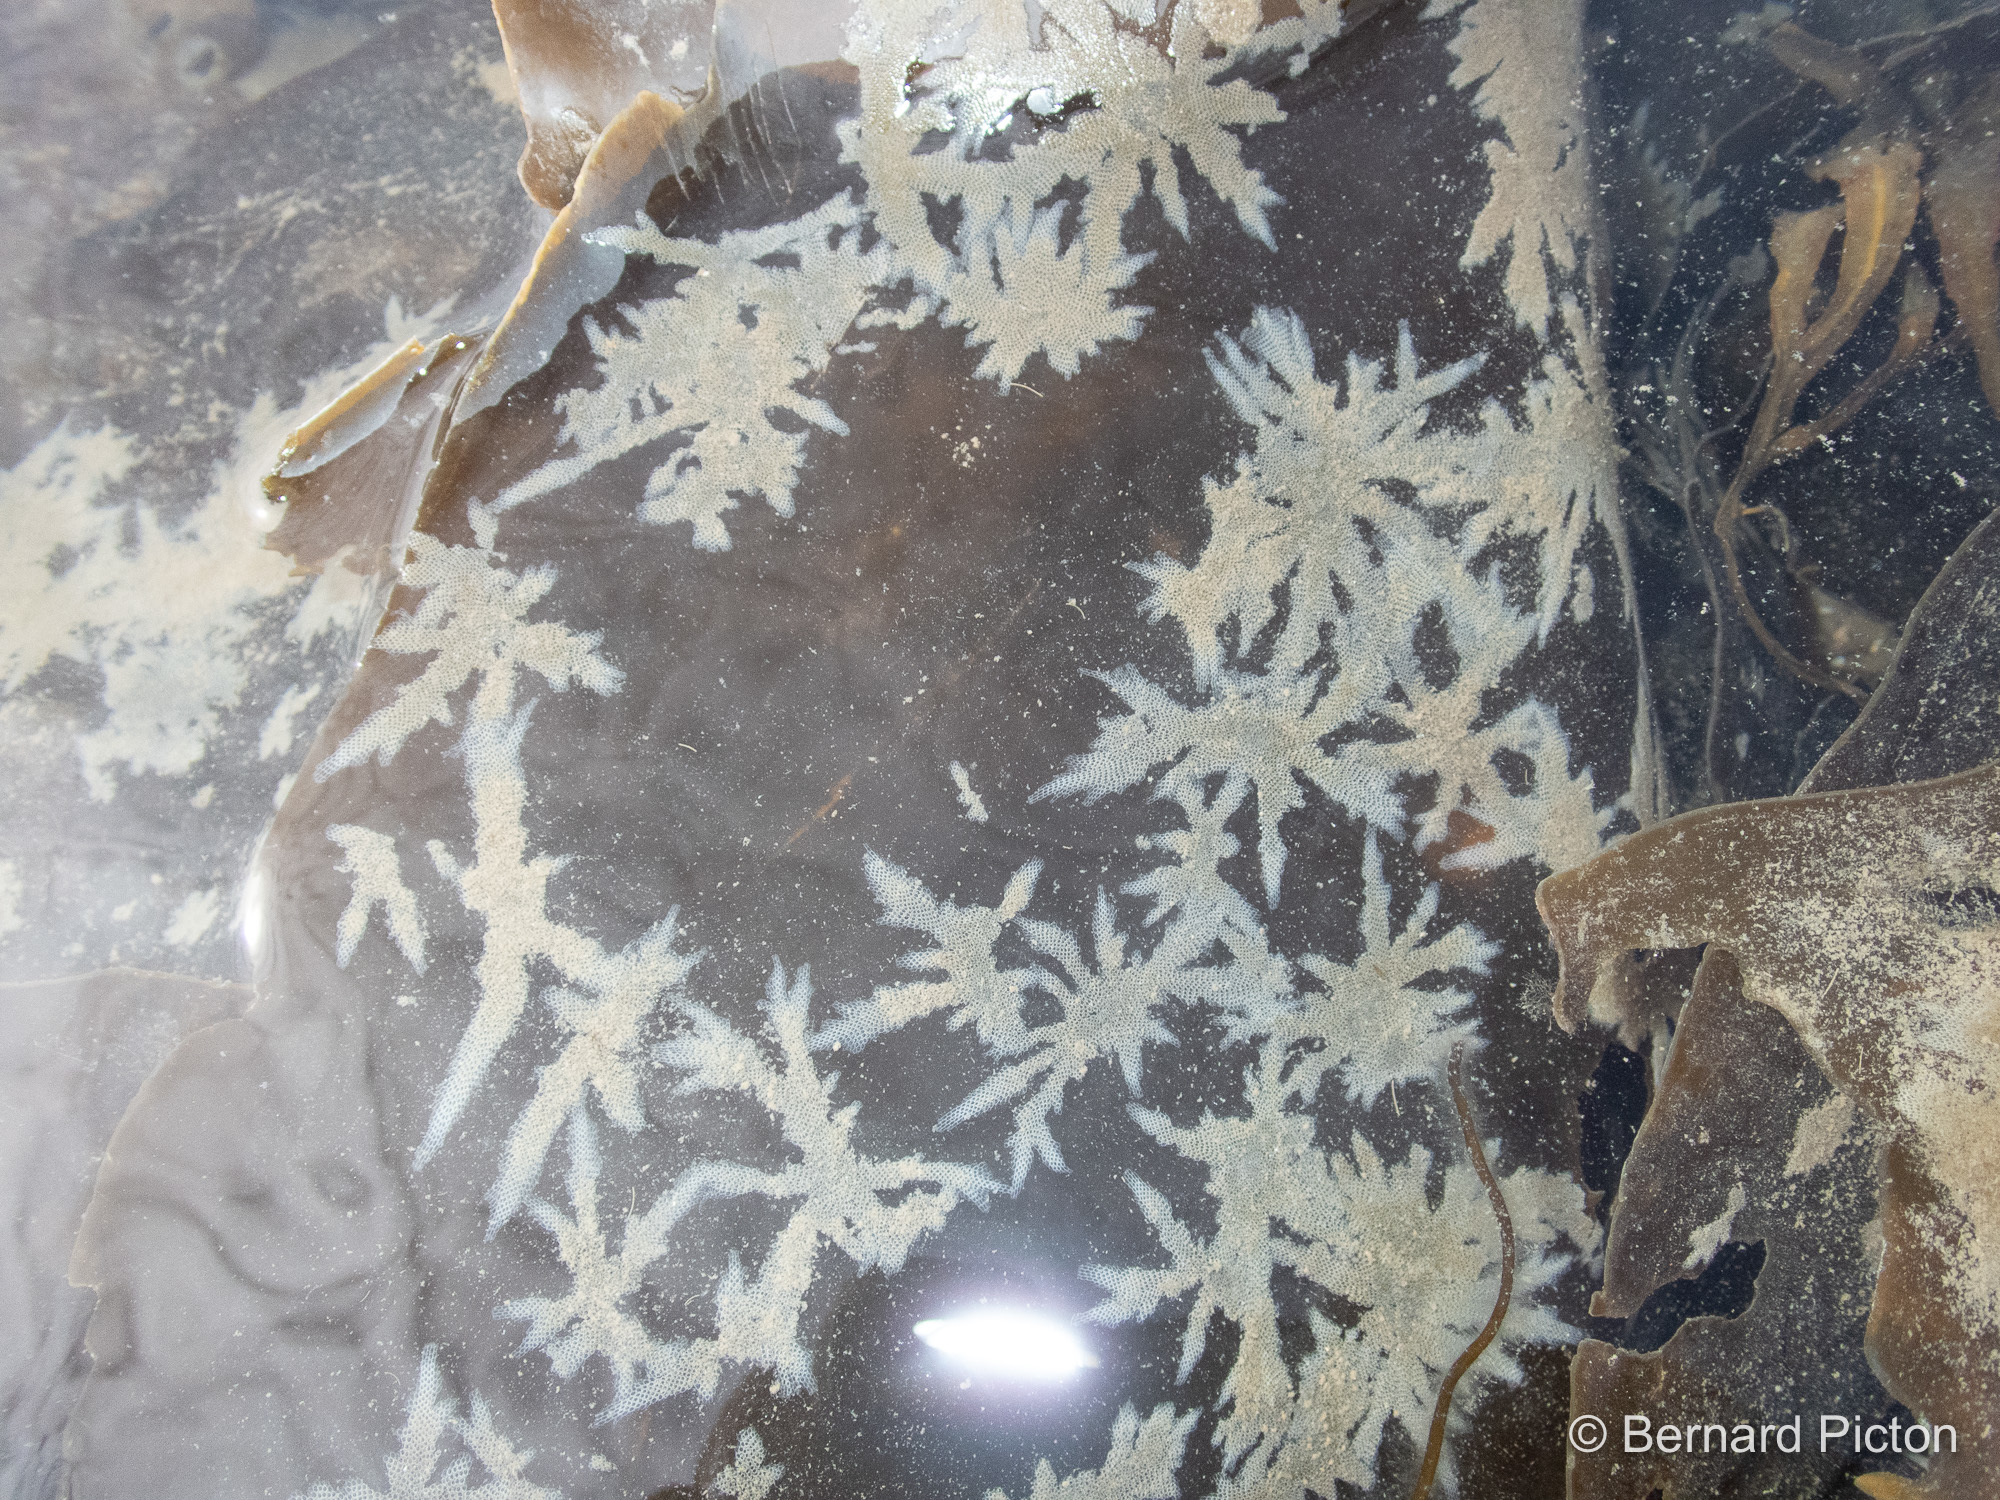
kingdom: Animalia
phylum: Bryozoa
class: Gymnolaemata
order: Cheilostomatida
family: Electridae
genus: Electra
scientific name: Electra pilosa
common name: Hairy sea-mat
